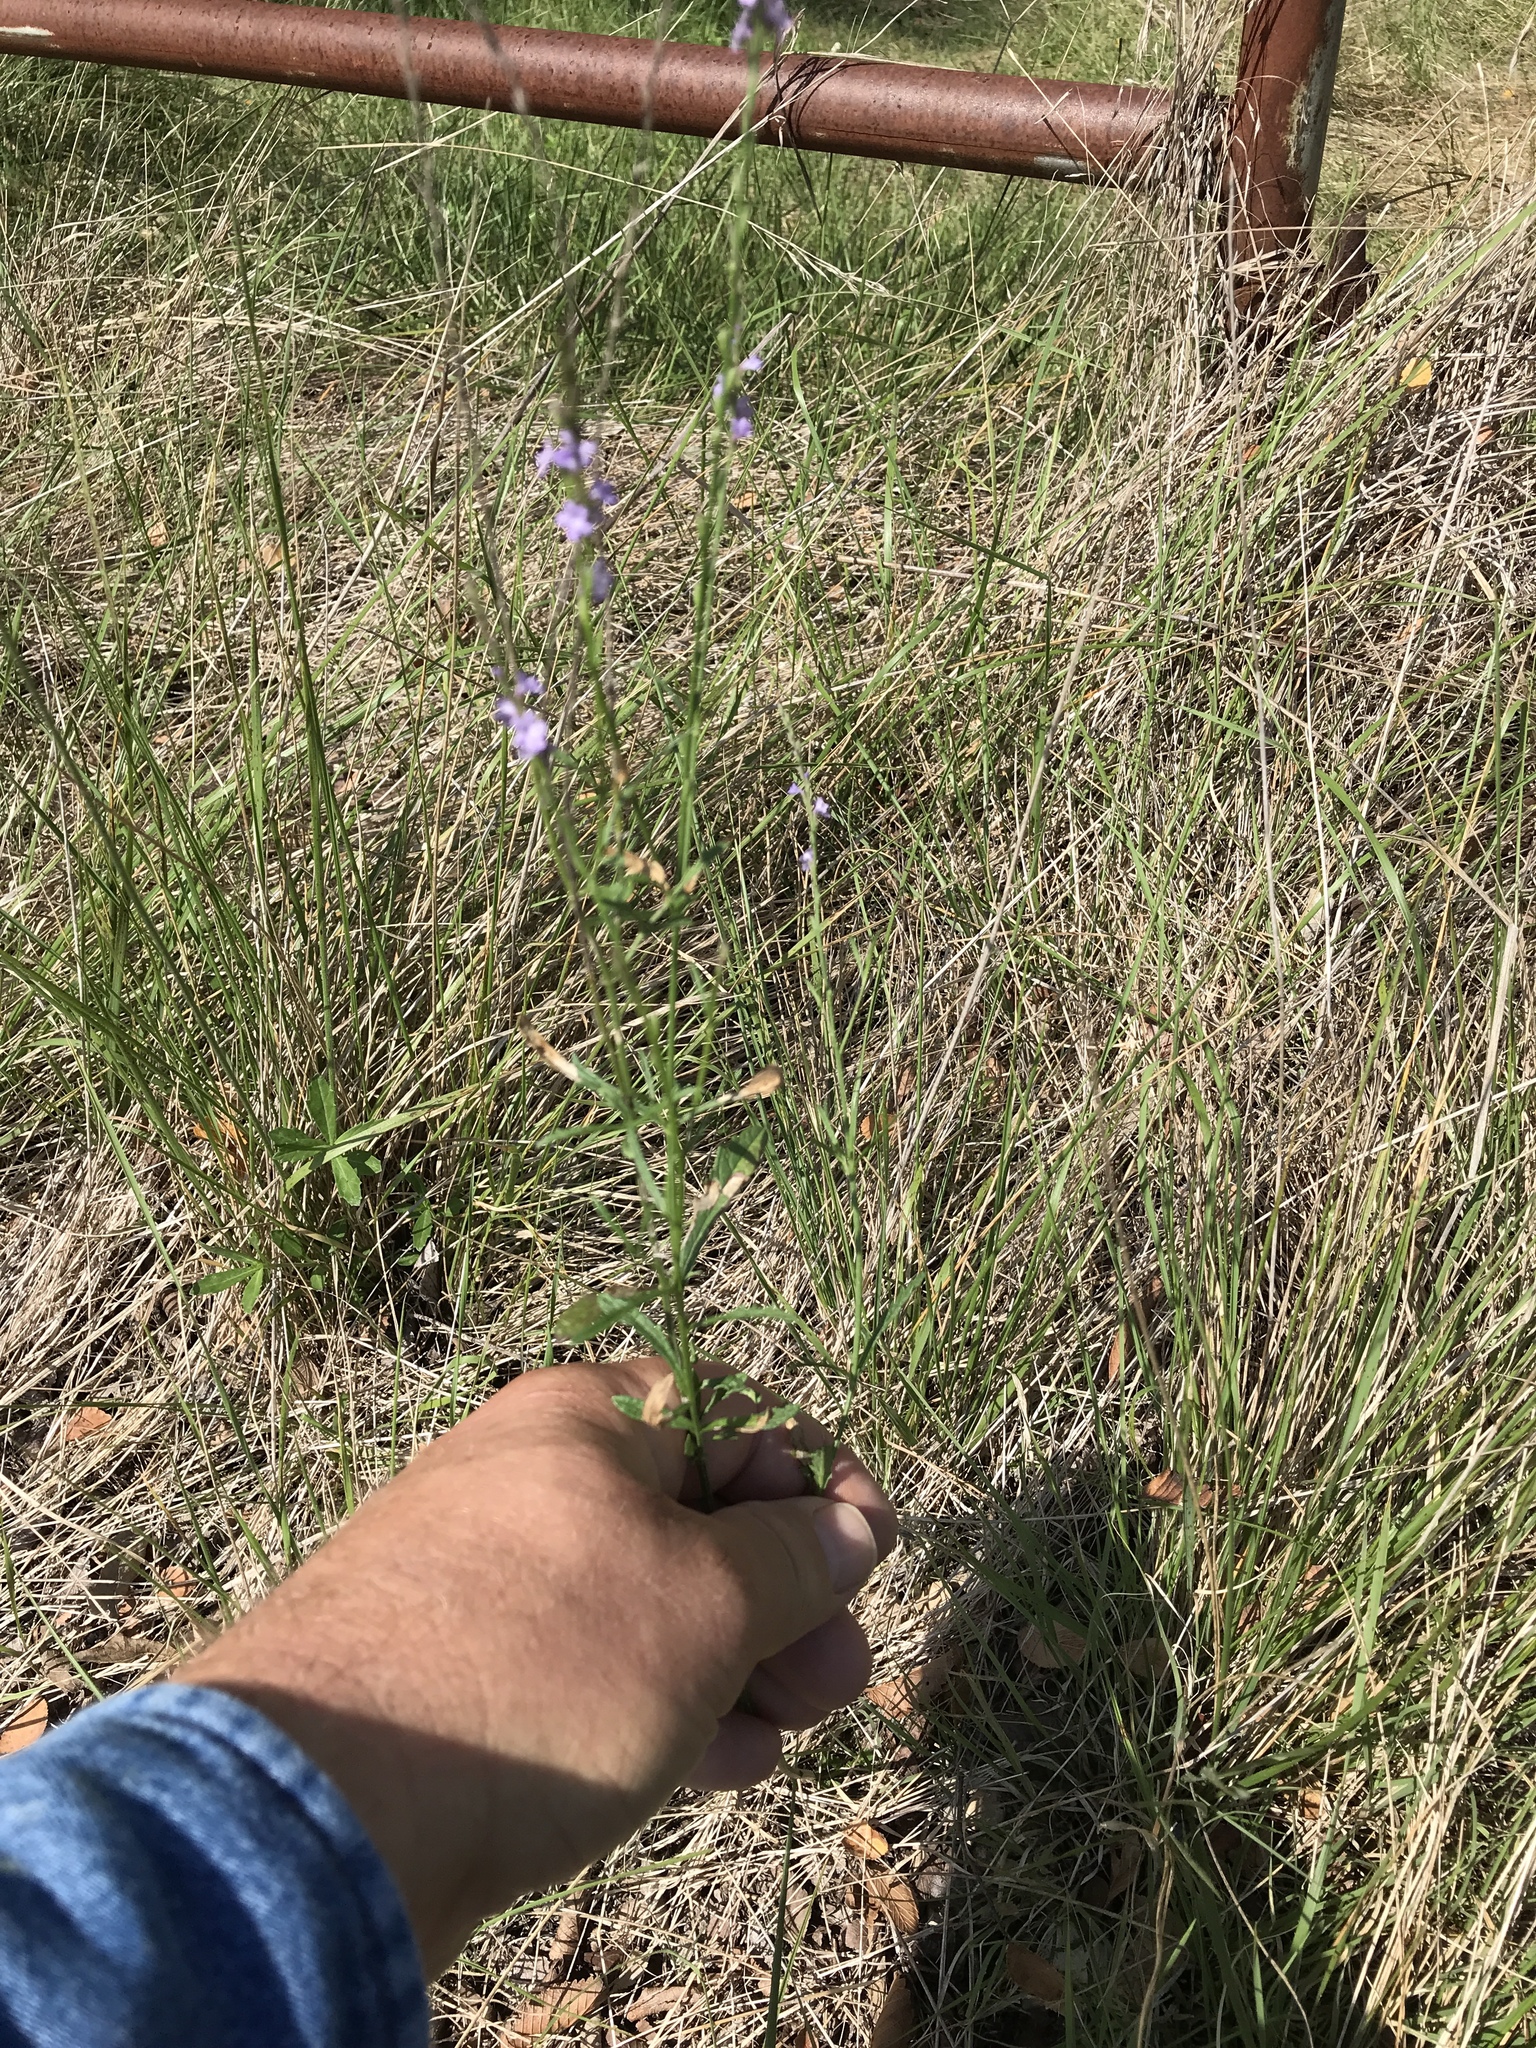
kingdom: Plantae
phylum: Tracheophyta
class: Magnoliopsida
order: Lamiales
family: Verbenaceae
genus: Verbena
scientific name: Verbena halei
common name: Texas vervain
